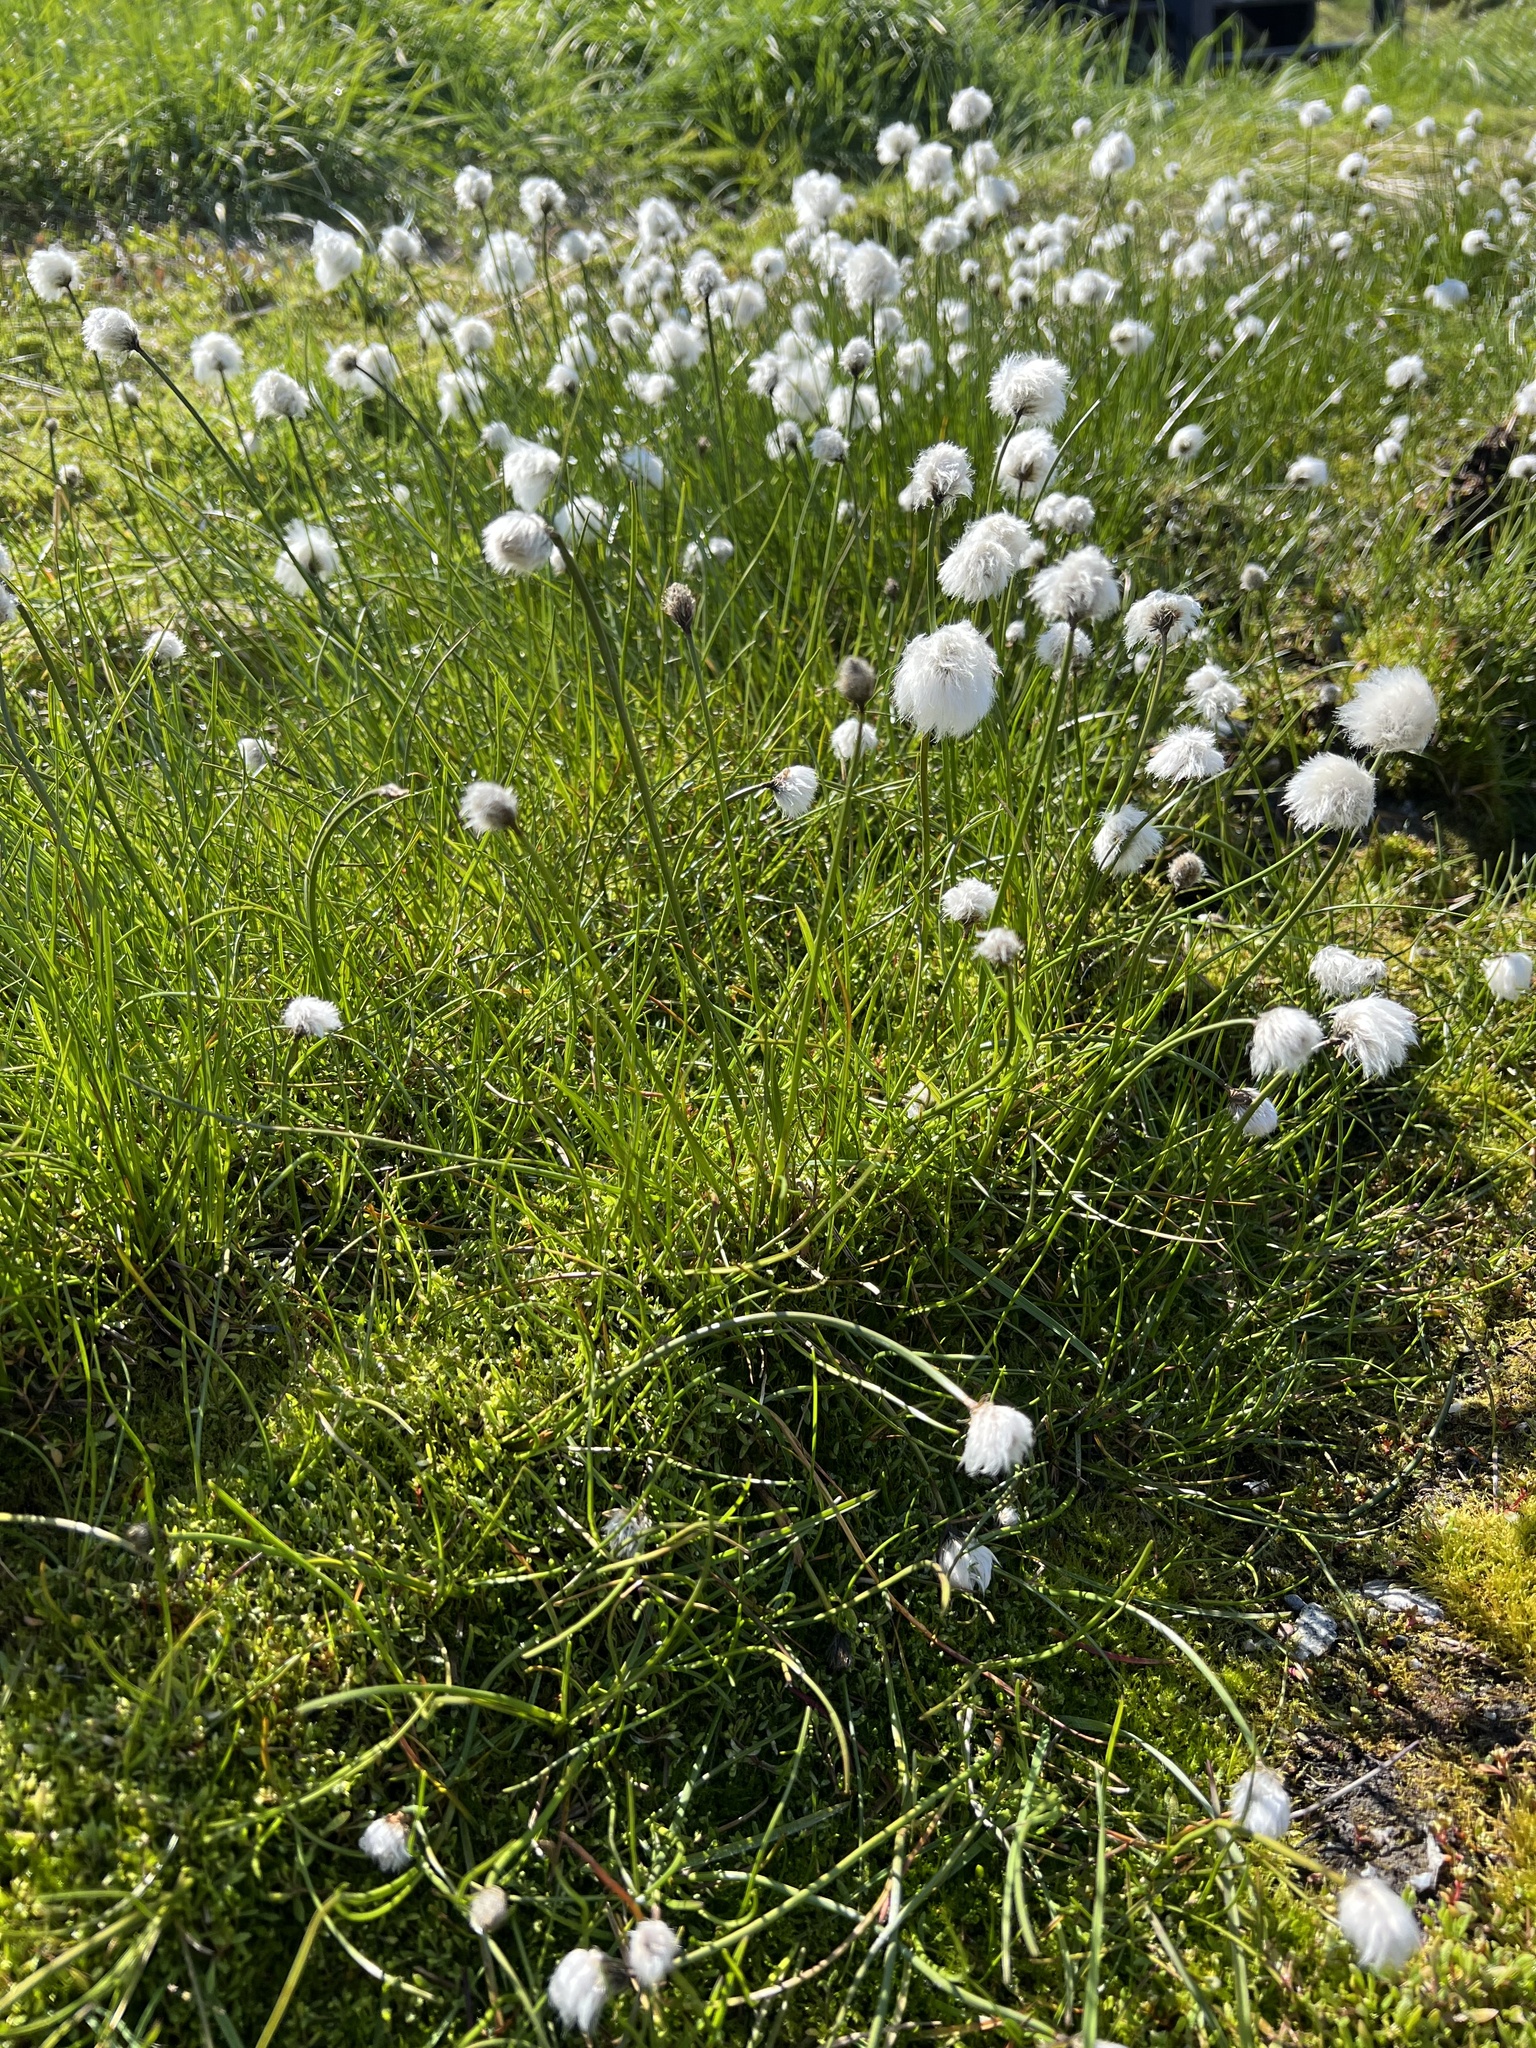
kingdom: Plantae
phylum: Tracheophyta
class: Liliopsida
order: Poales
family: Cyperaceae
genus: Eriophorum
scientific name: Eriophorum scheuchzeri
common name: Scheuchzer's cottongrass
